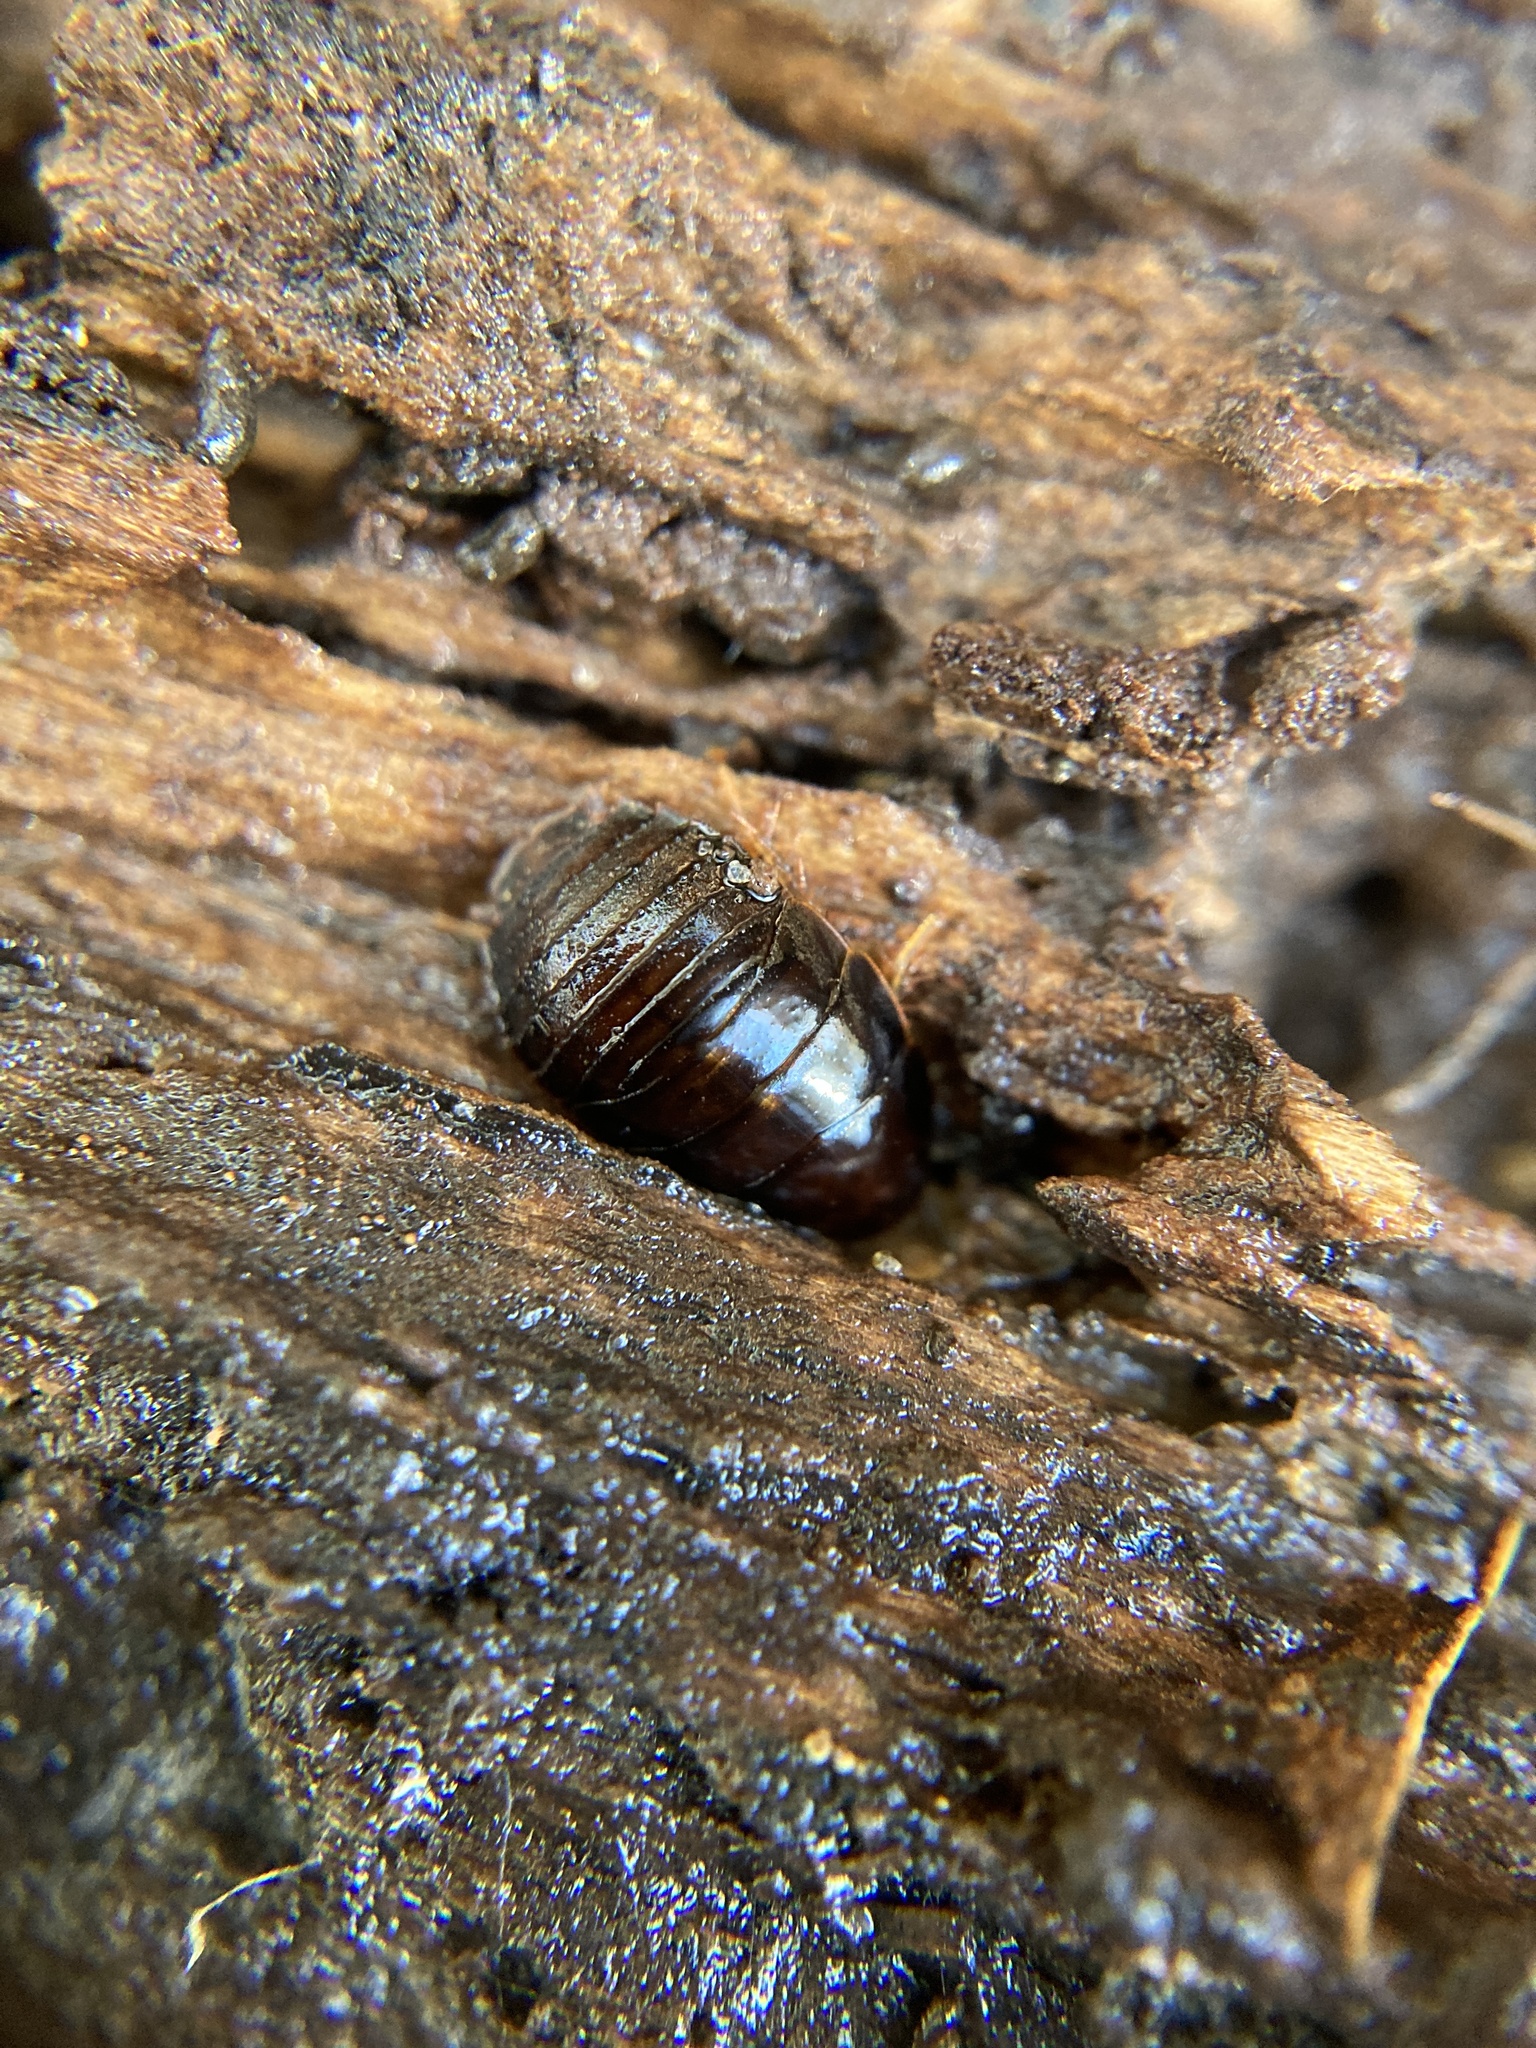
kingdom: Animalia
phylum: Arthropoda
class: Insecta
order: Blattodea
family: Blaberidae
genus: Pycnoscelus
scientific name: Pycnoscelus surinamensis
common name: Surinam cockroach
